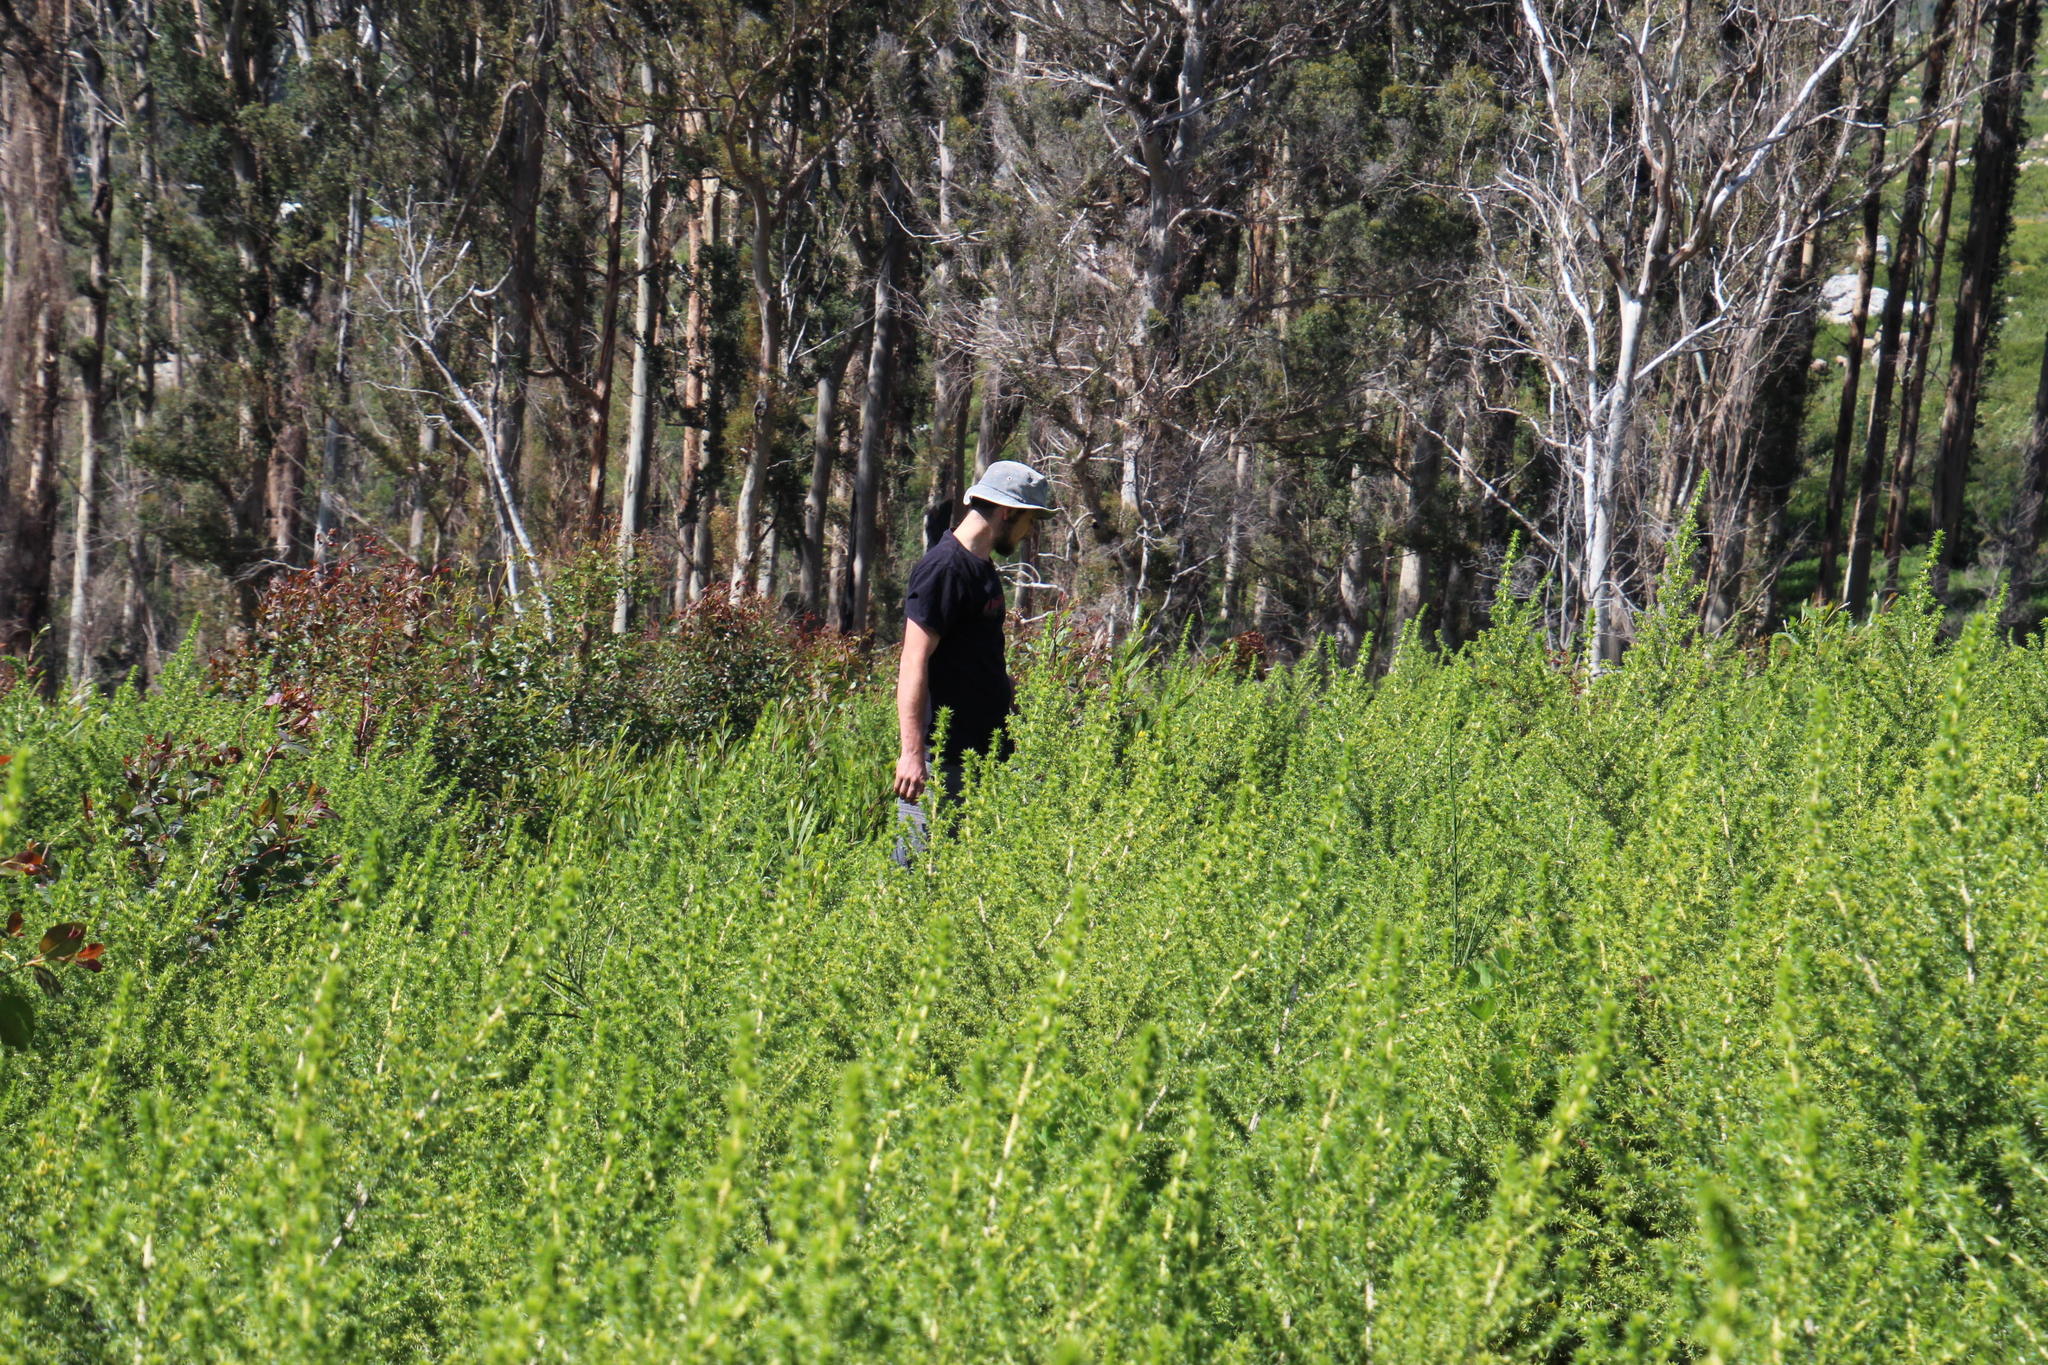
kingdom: Plantae
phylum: Tracheophyta
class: Magnoliopsida
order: Fabales
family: Fabaceae
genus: Aspalathus
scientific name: Aspalathus astroites
